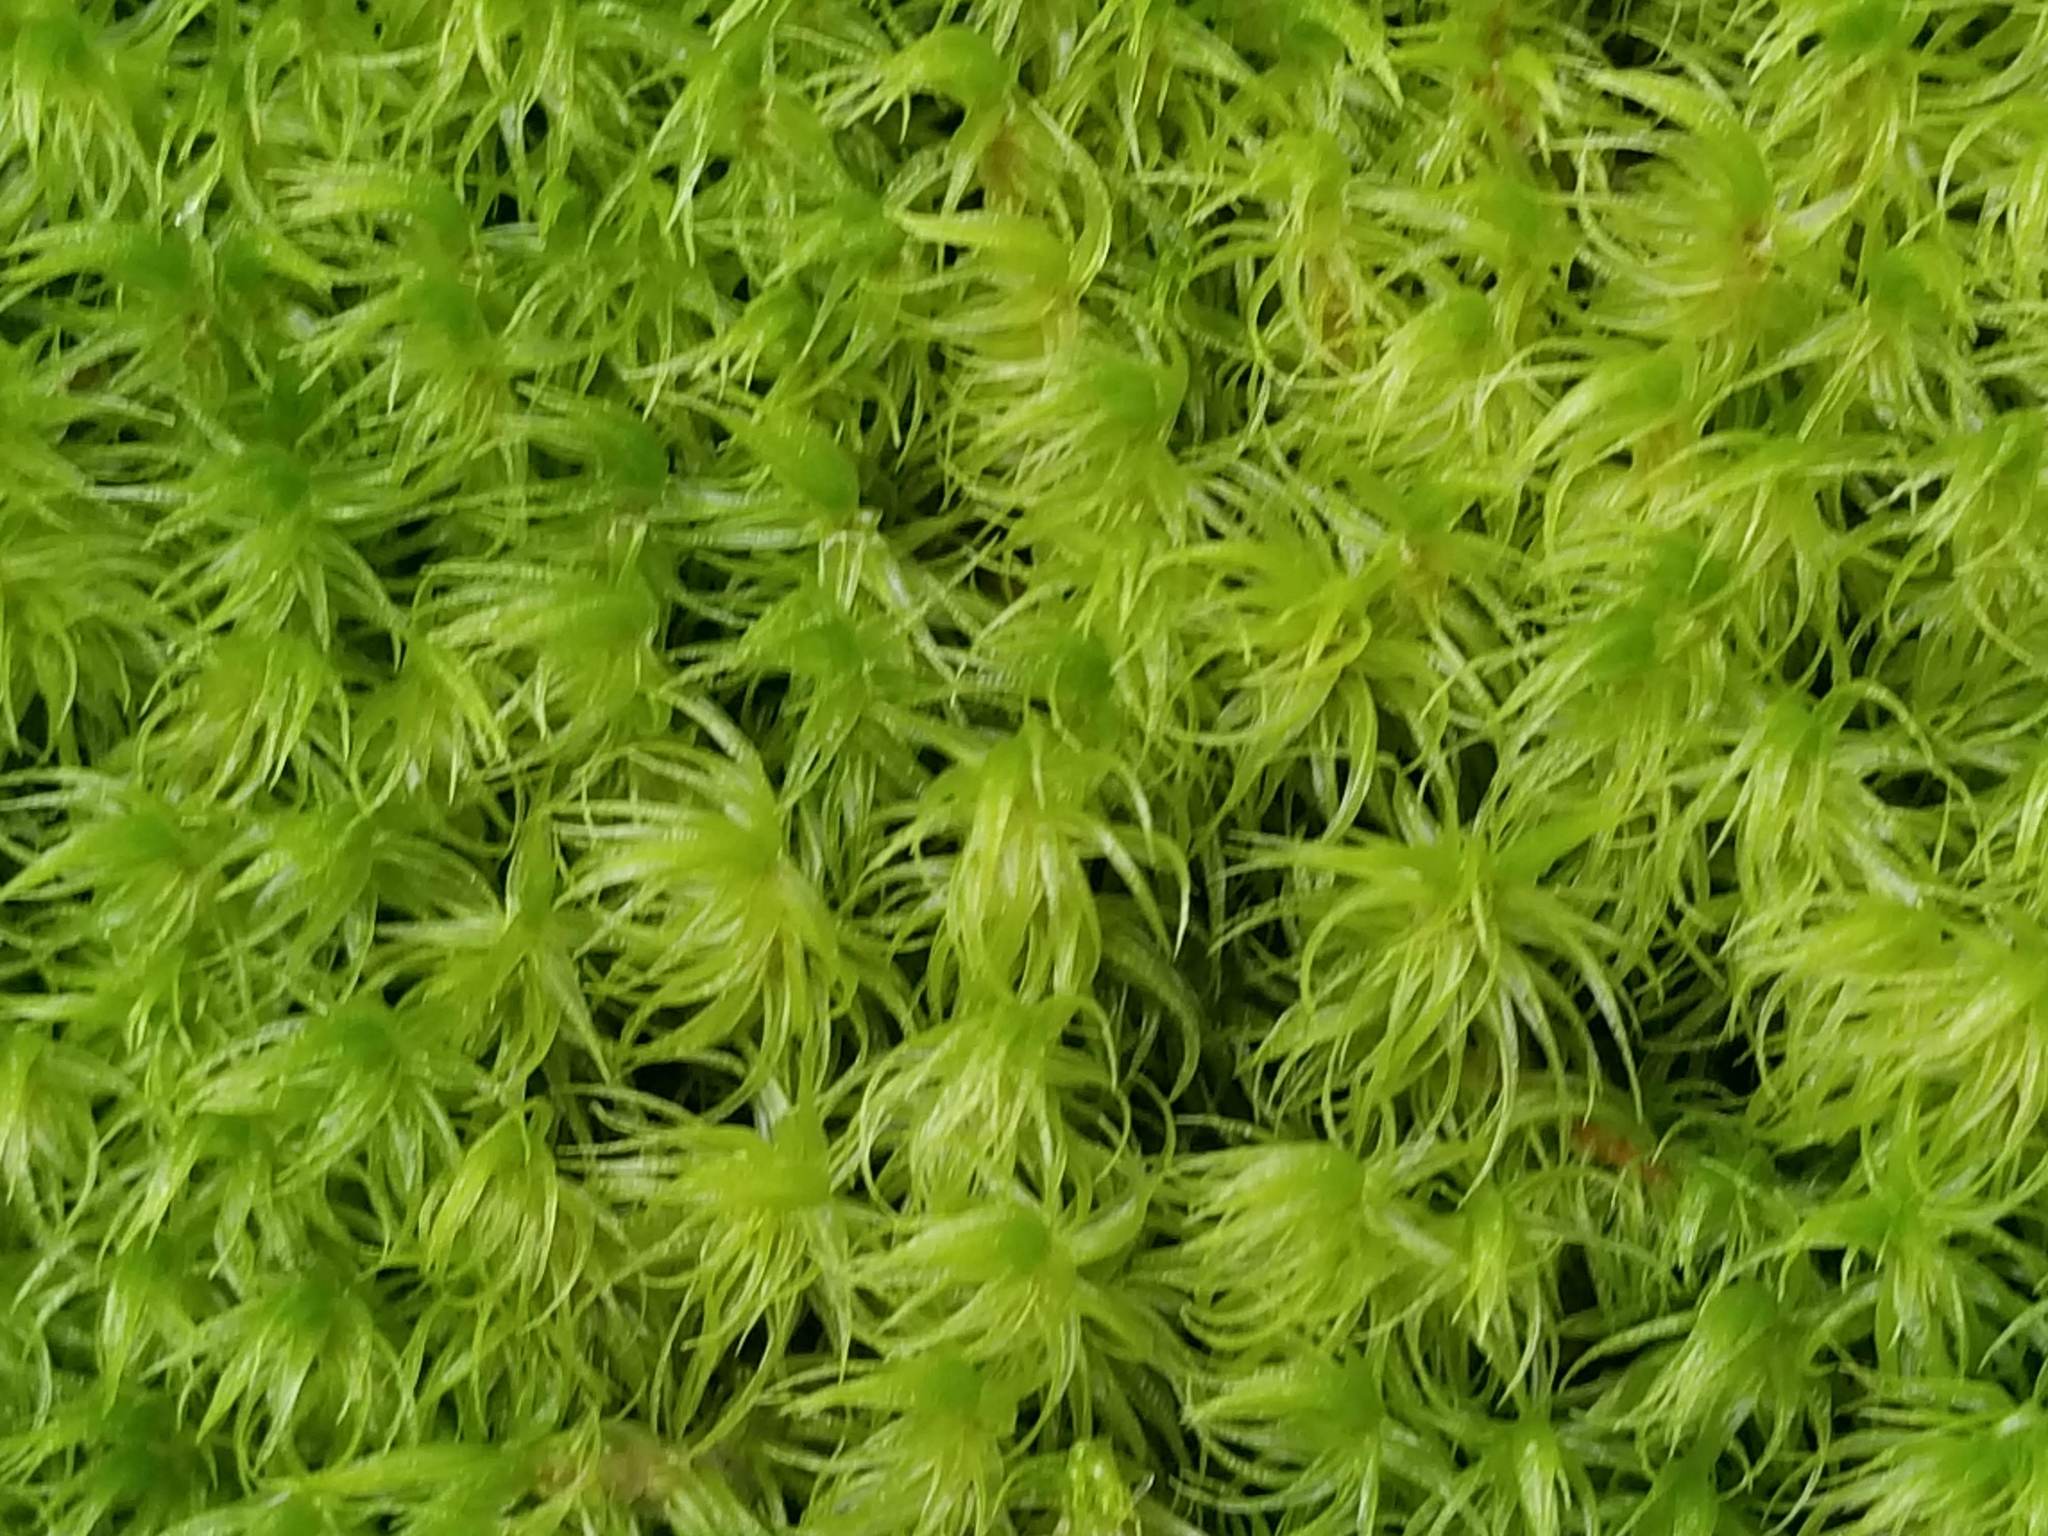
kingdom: Plantae
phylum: Bryophyta
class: Bryopsida
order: Dicranales
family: Dicranaceae
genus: Dicranum
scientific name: Dicranum polysetum
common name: Rugose fork-moss
